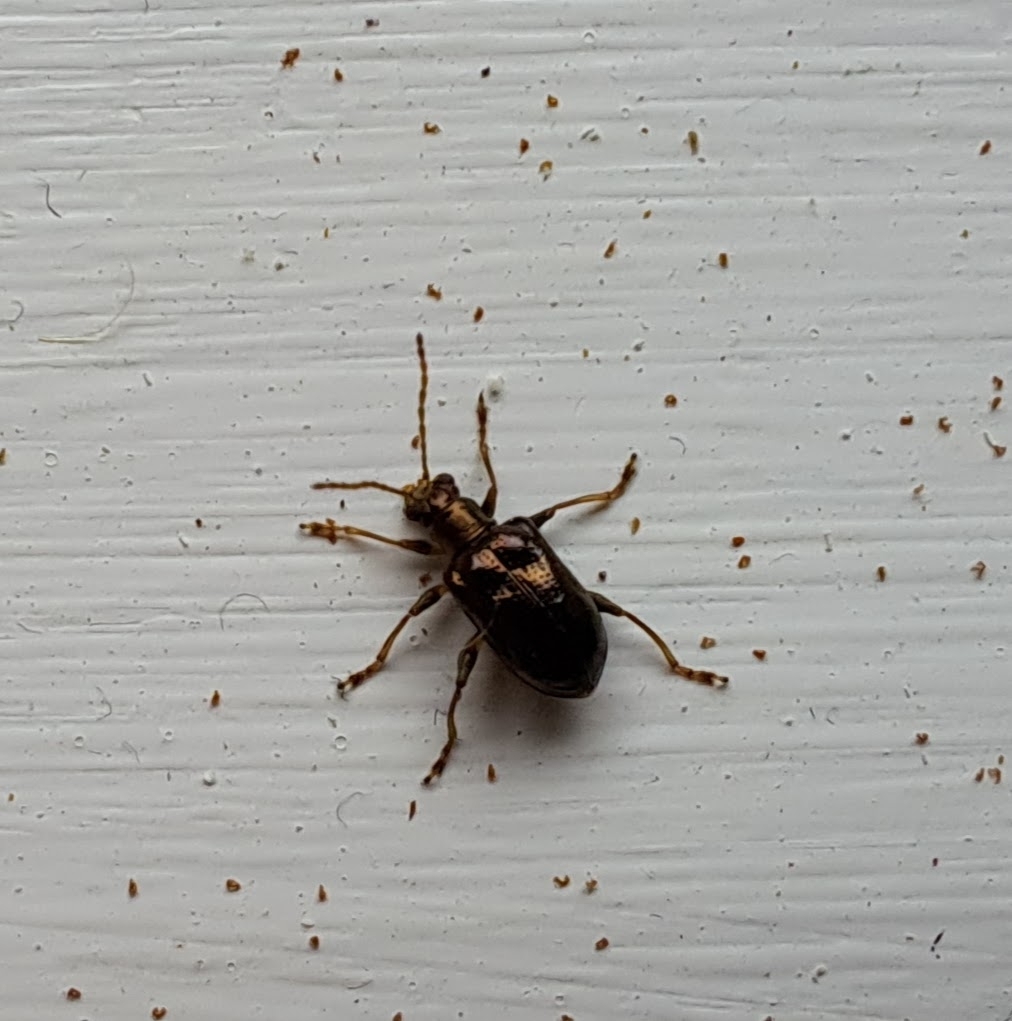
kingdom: Animalia
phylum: Arthropoda
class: Insecta
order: Coleoptera
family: Chrysomelidae
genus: Neolema
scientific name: Neolema ogloblini
